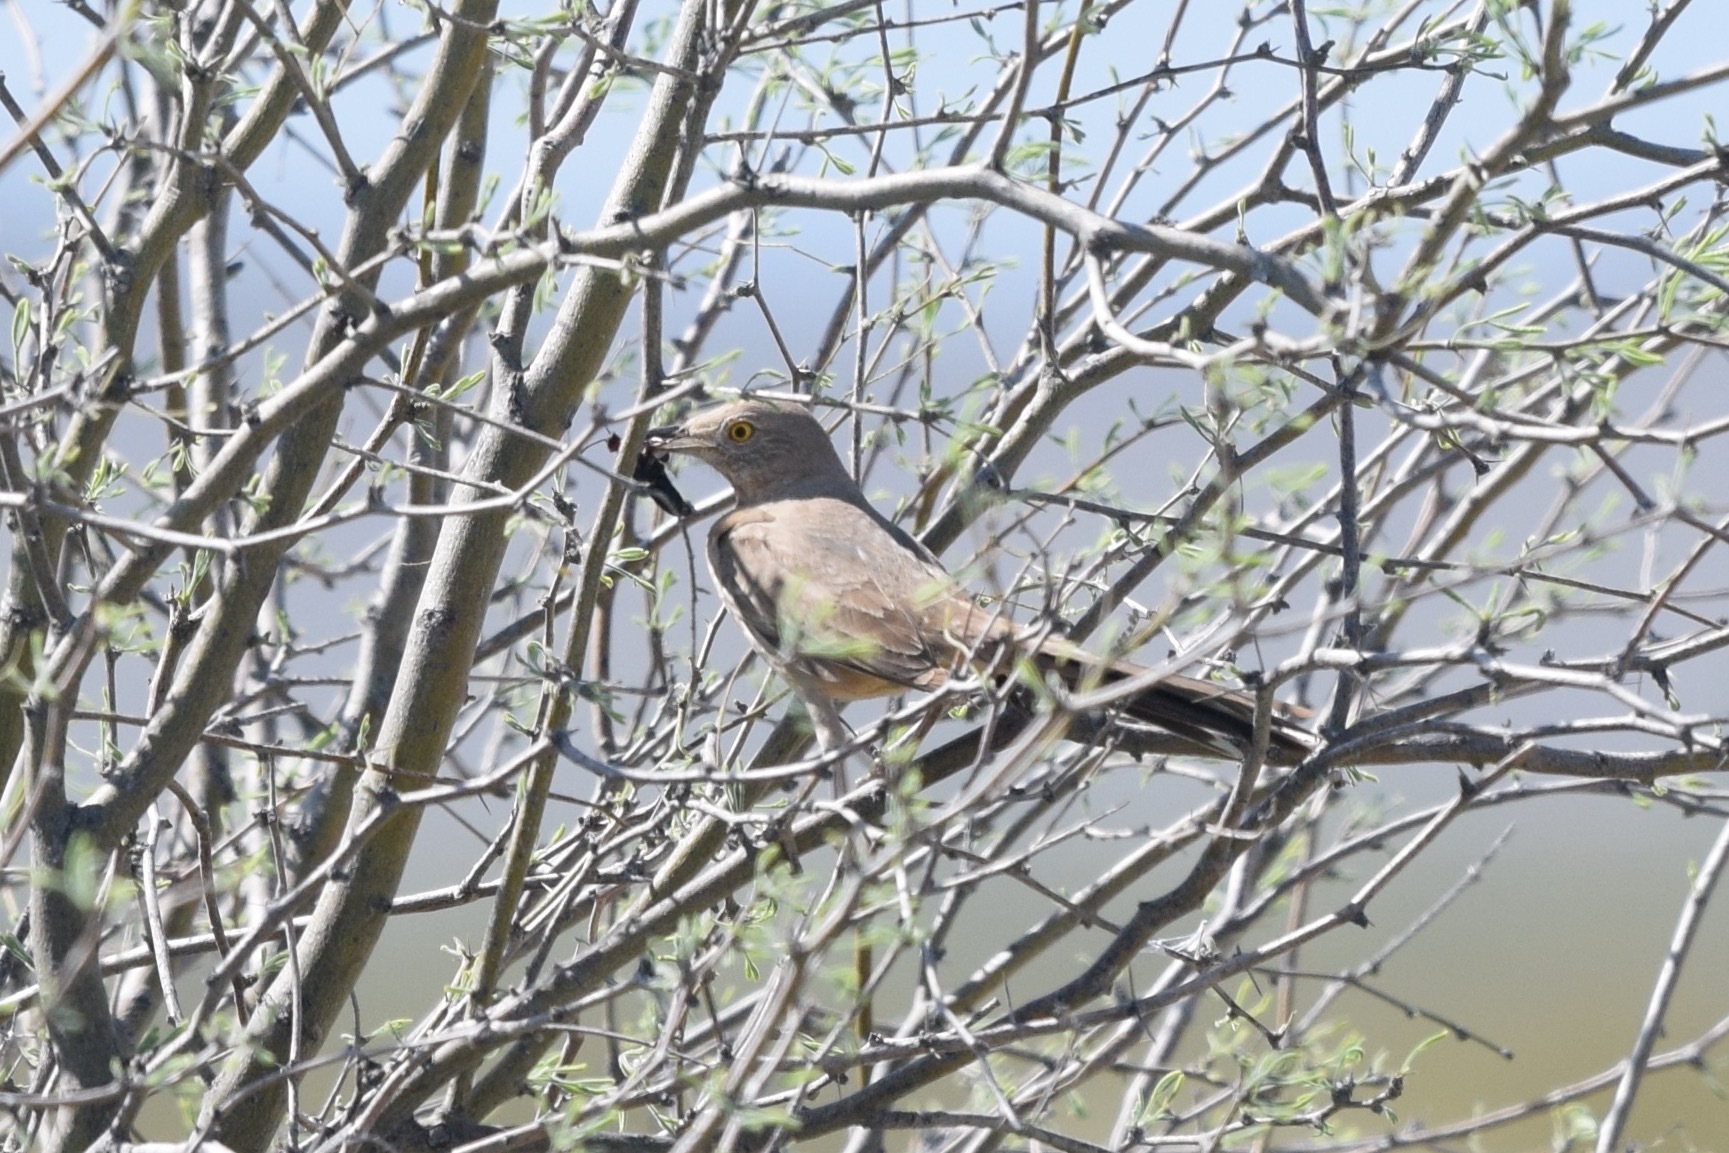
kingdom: Animalia
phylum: Chordata
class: Aves
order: Passeriformes
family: Mimidae
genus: Toxostoma
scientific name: Toxostoma bendirei
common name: Bendire's thrasher
